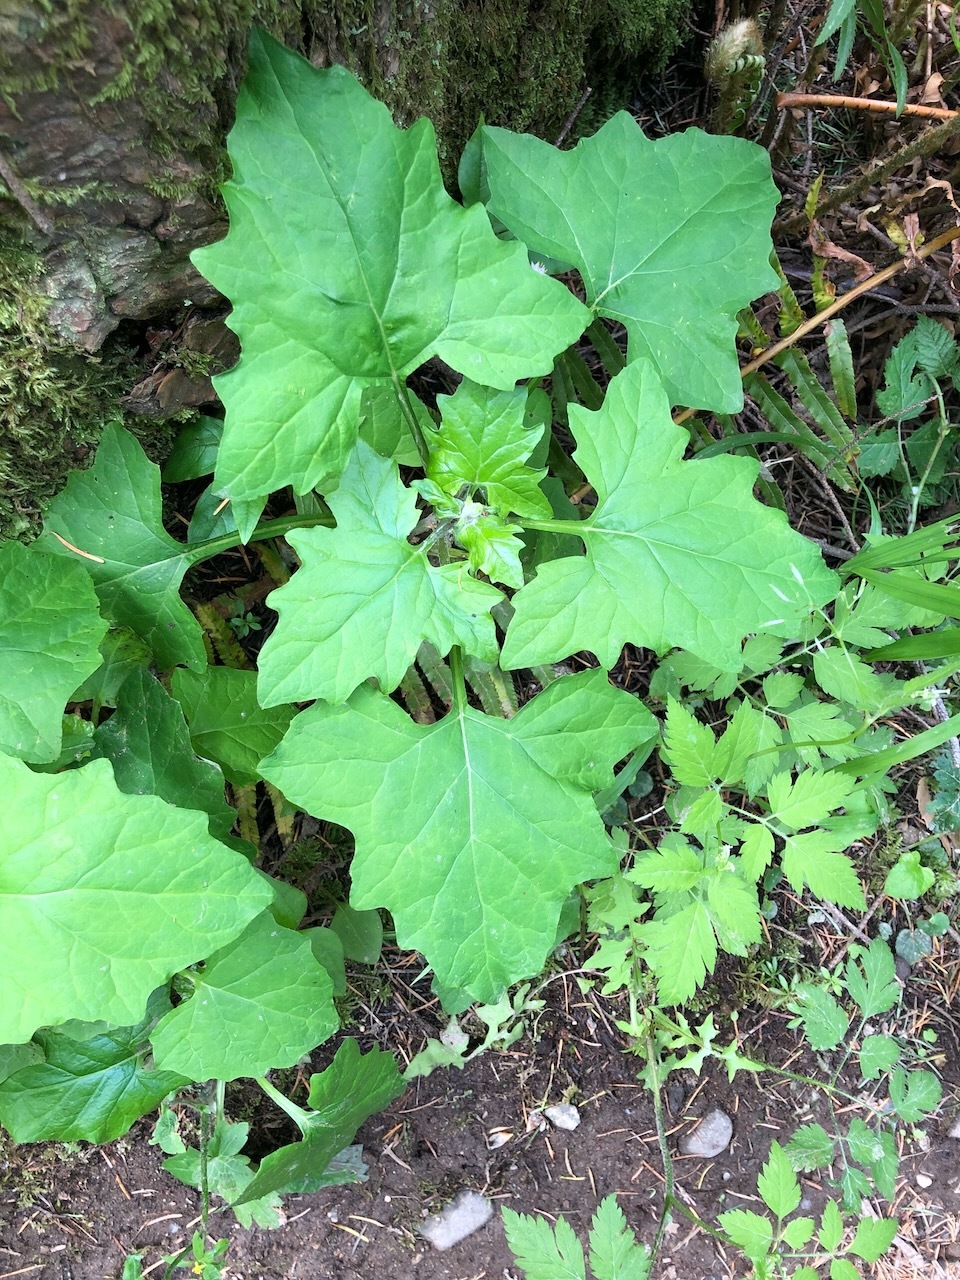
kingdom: Plantae
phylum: Tracheophyta
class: Magnoliopsida
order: Asterales
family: Asteraceae
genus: Adenocaulon
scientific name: Adenocaulon bicolor
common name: Trailplant
